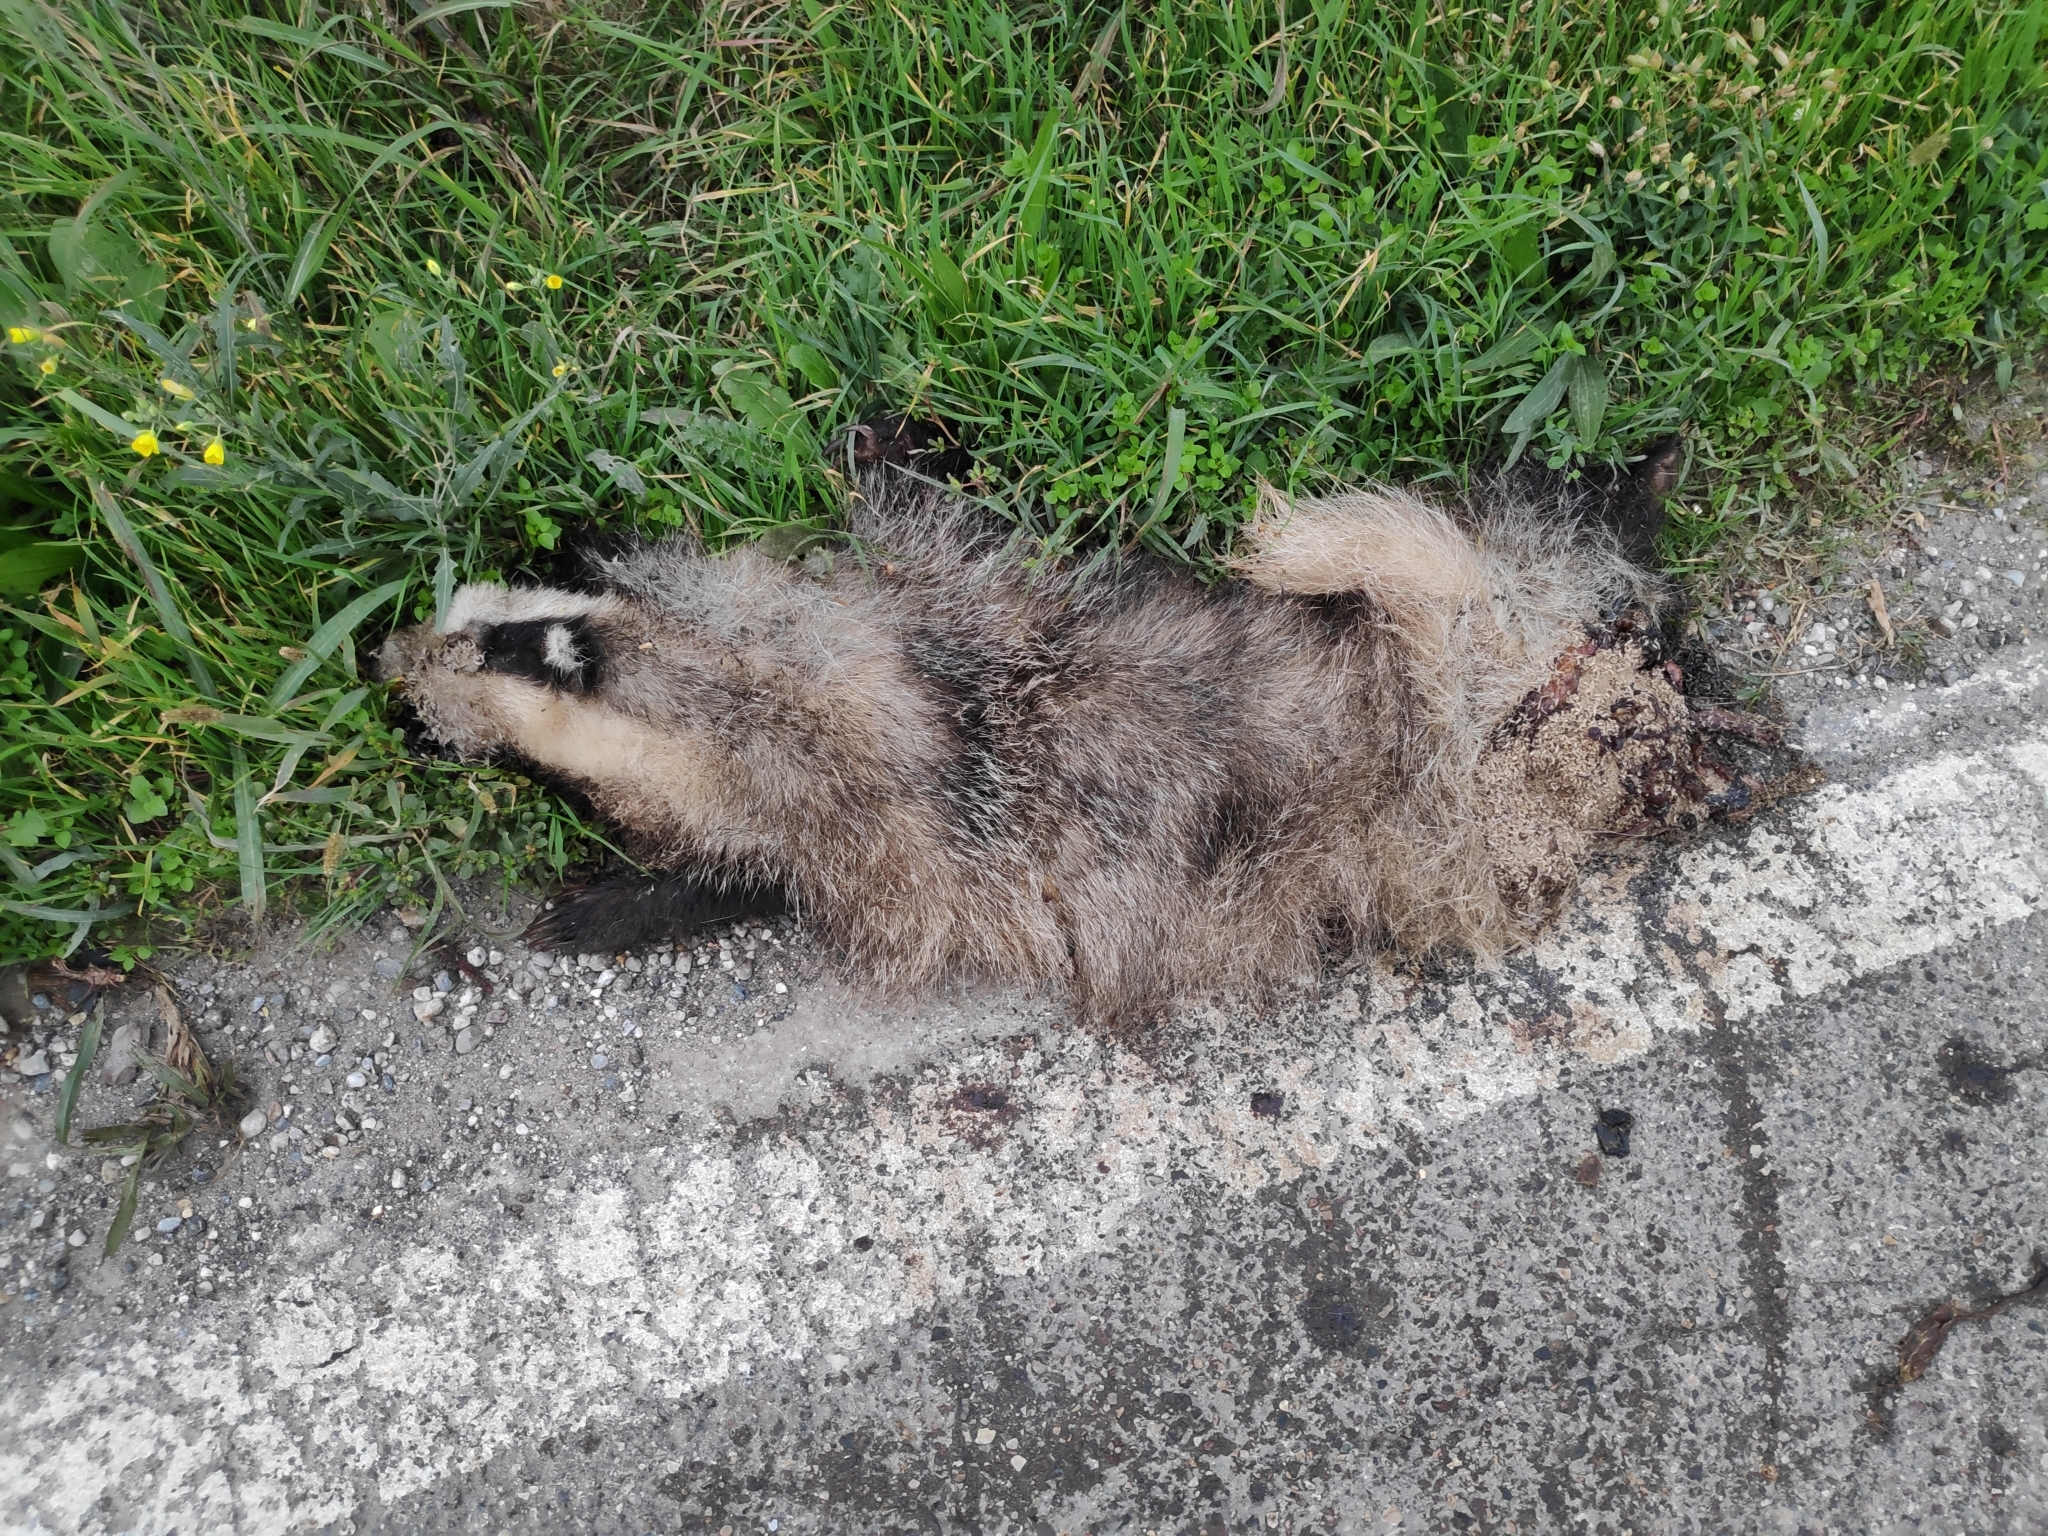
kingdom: Animalia
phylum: Chordata
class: Mammalia
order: Carnivora
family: Mustelidae
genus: Meles
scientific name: Meles meles
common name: Eurasian badger
